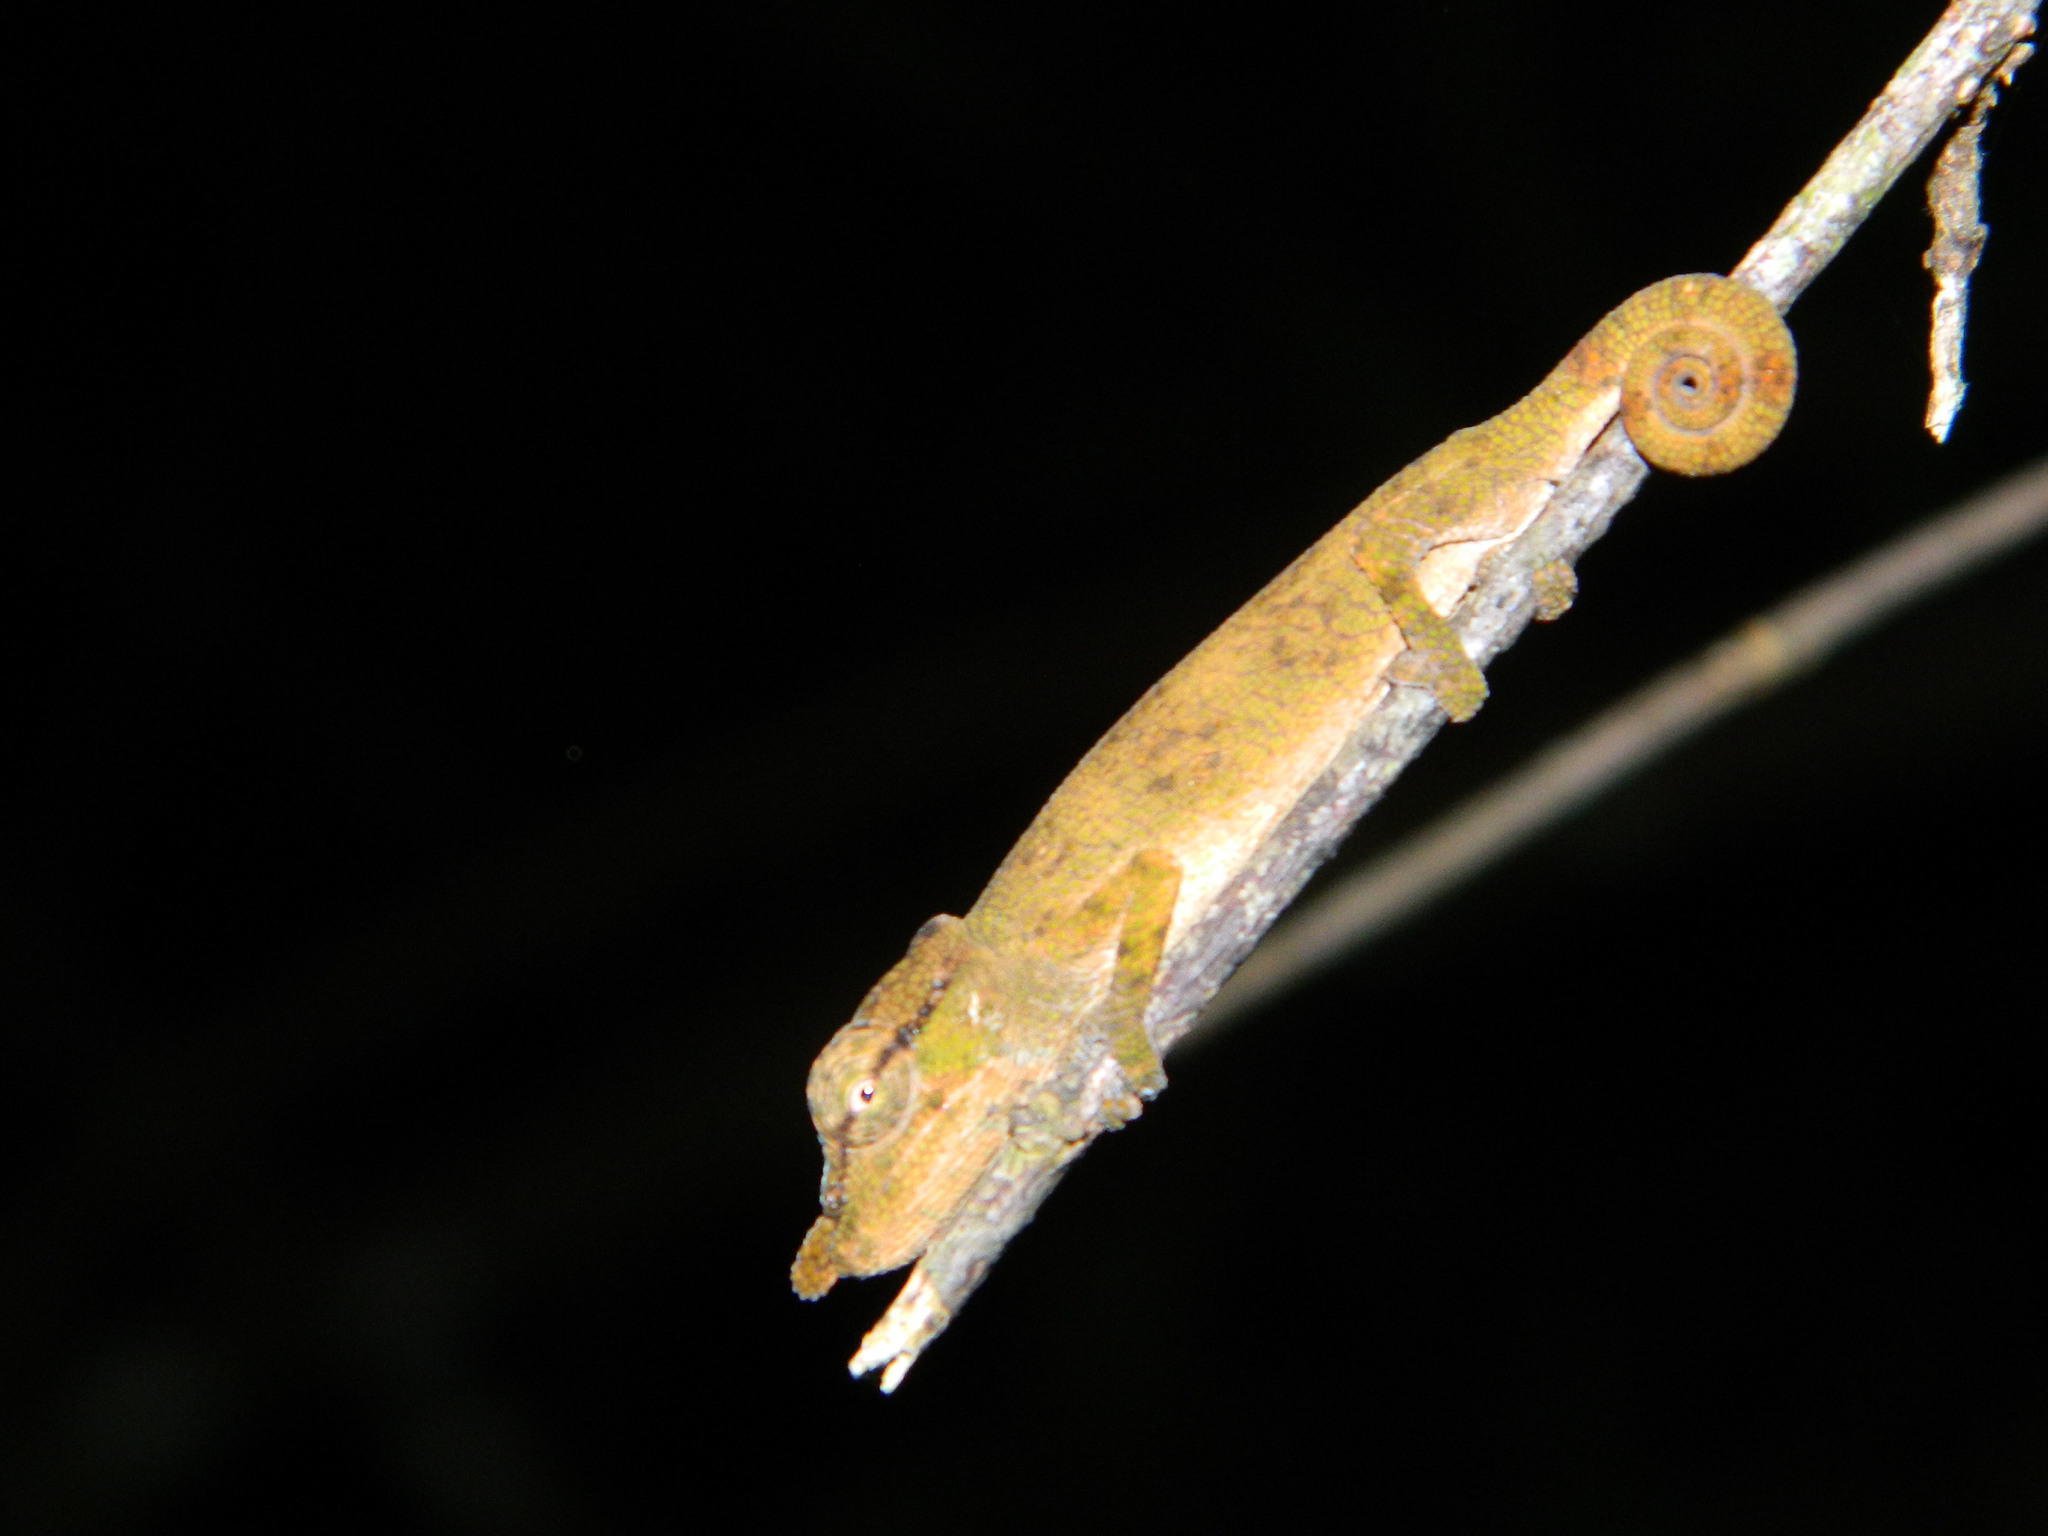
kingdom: Animalia
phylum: Chordata
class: Squamata
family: Chamaeleonidae
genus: Calumma
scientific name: Calumma tjiasmantoi
